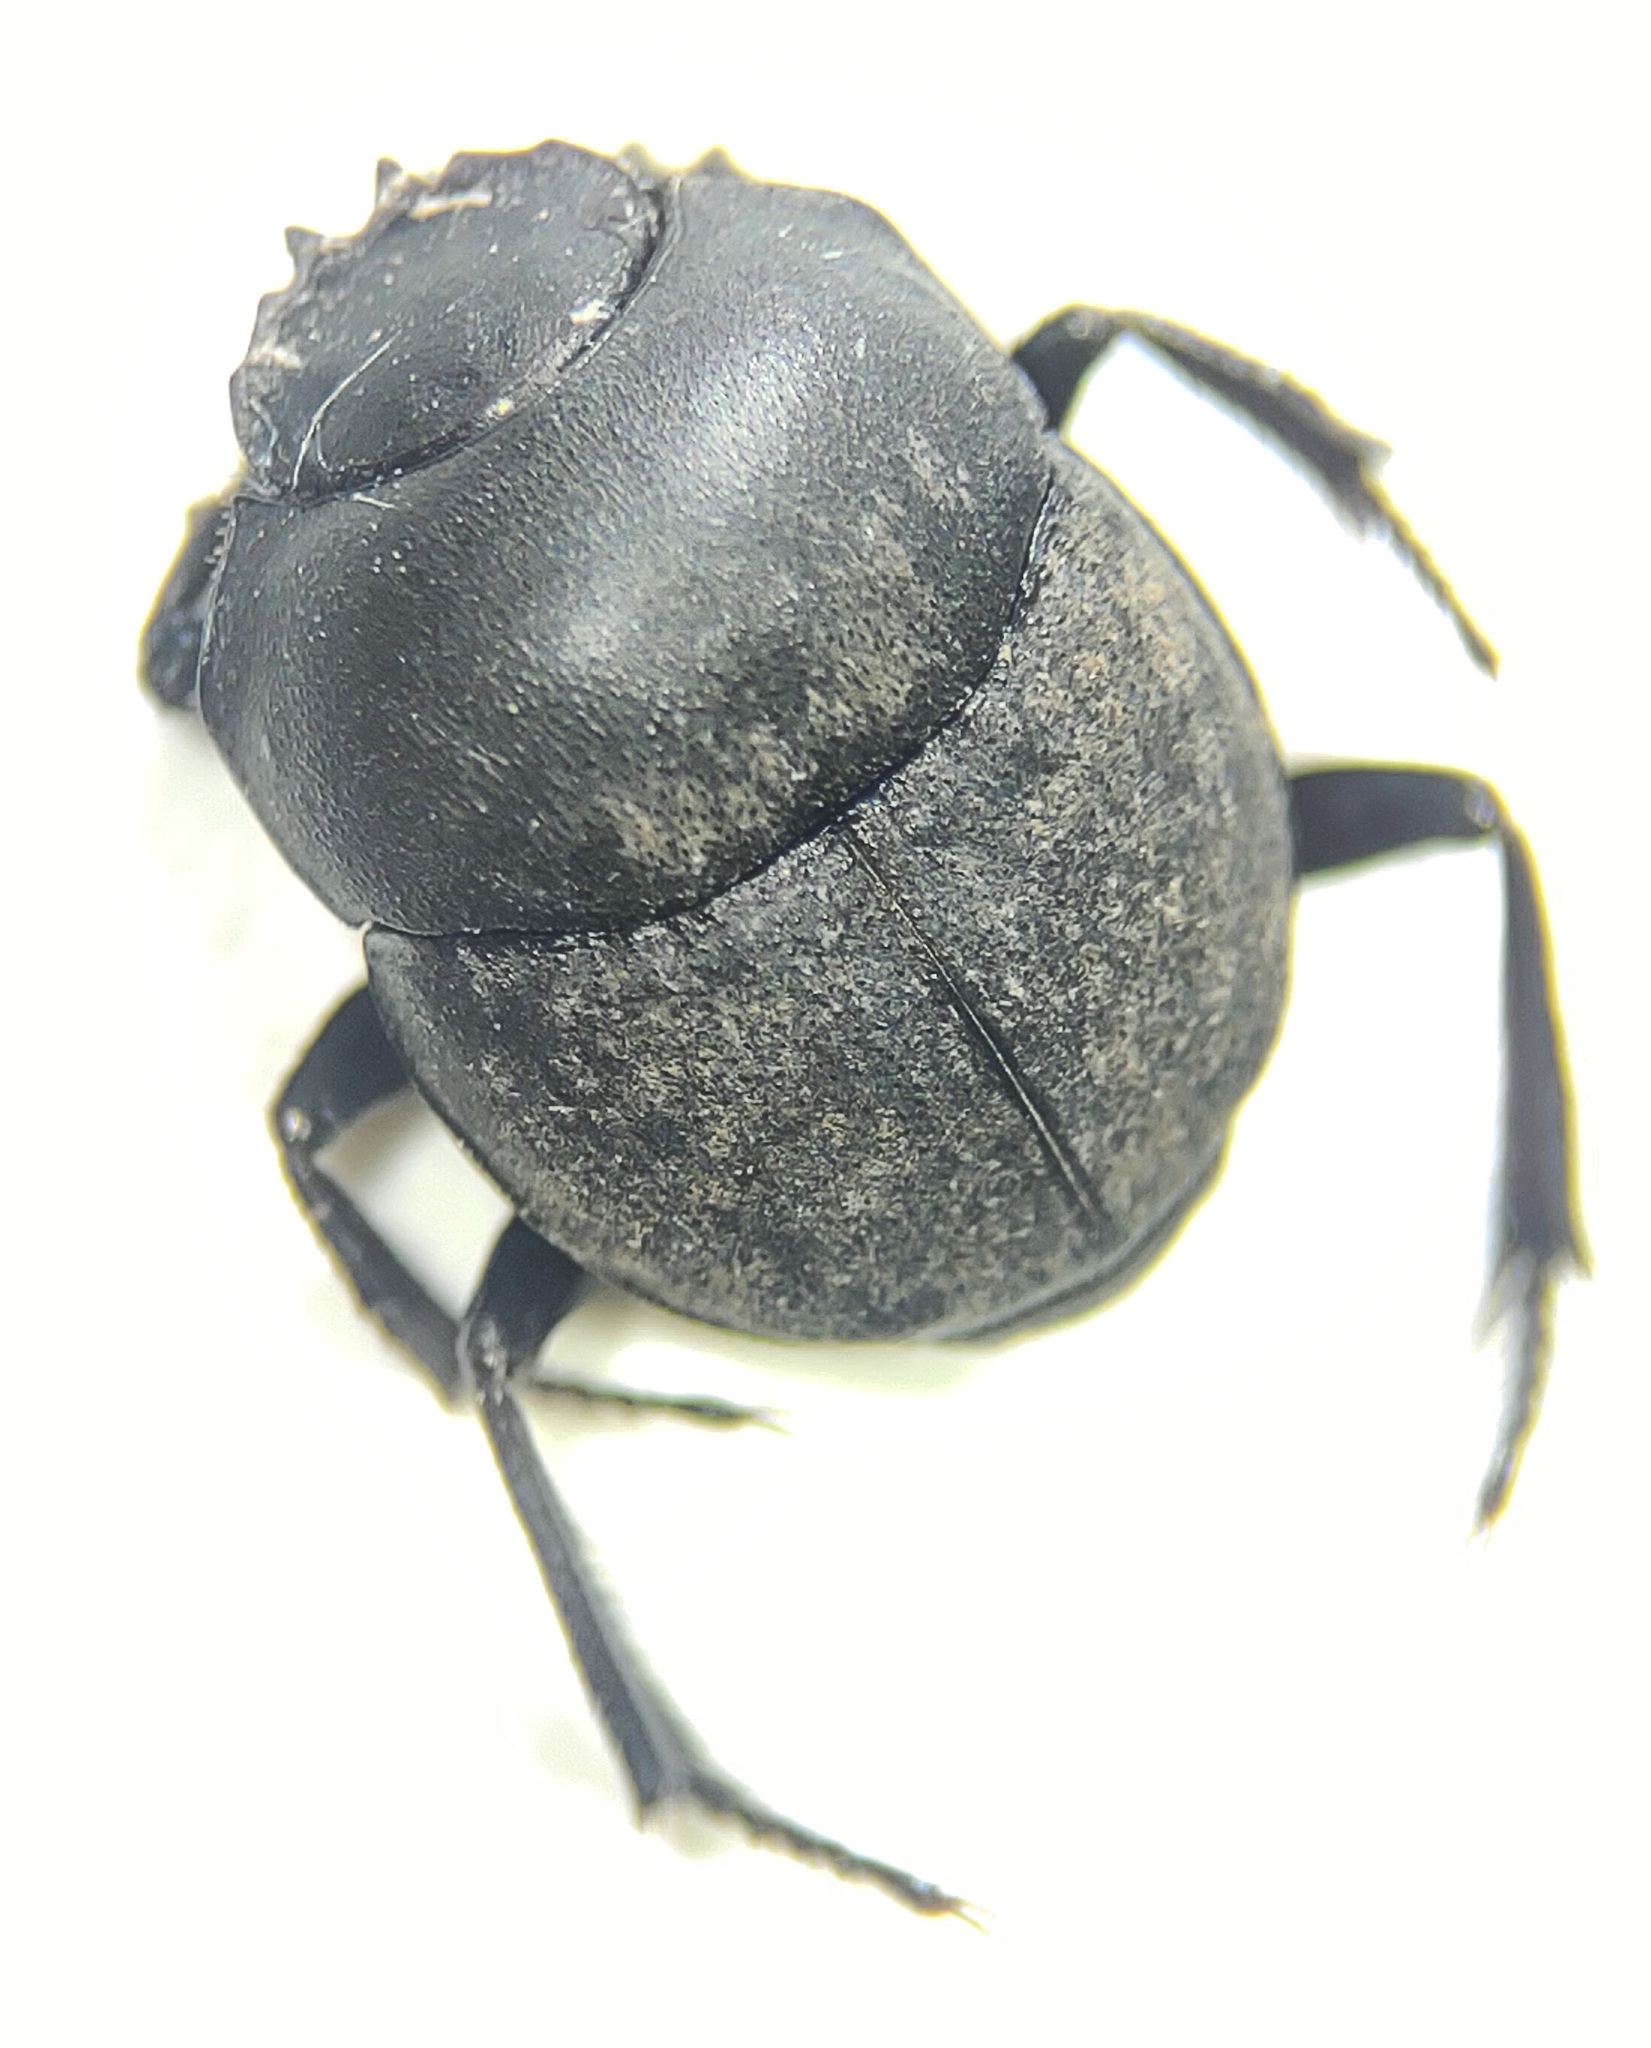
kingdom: Animalia
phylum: Arthropoda
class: Insecta
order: Coleoptera
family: Scarabaeidae
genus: Melanocanthon
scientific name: Melanocanthon nigricornis
